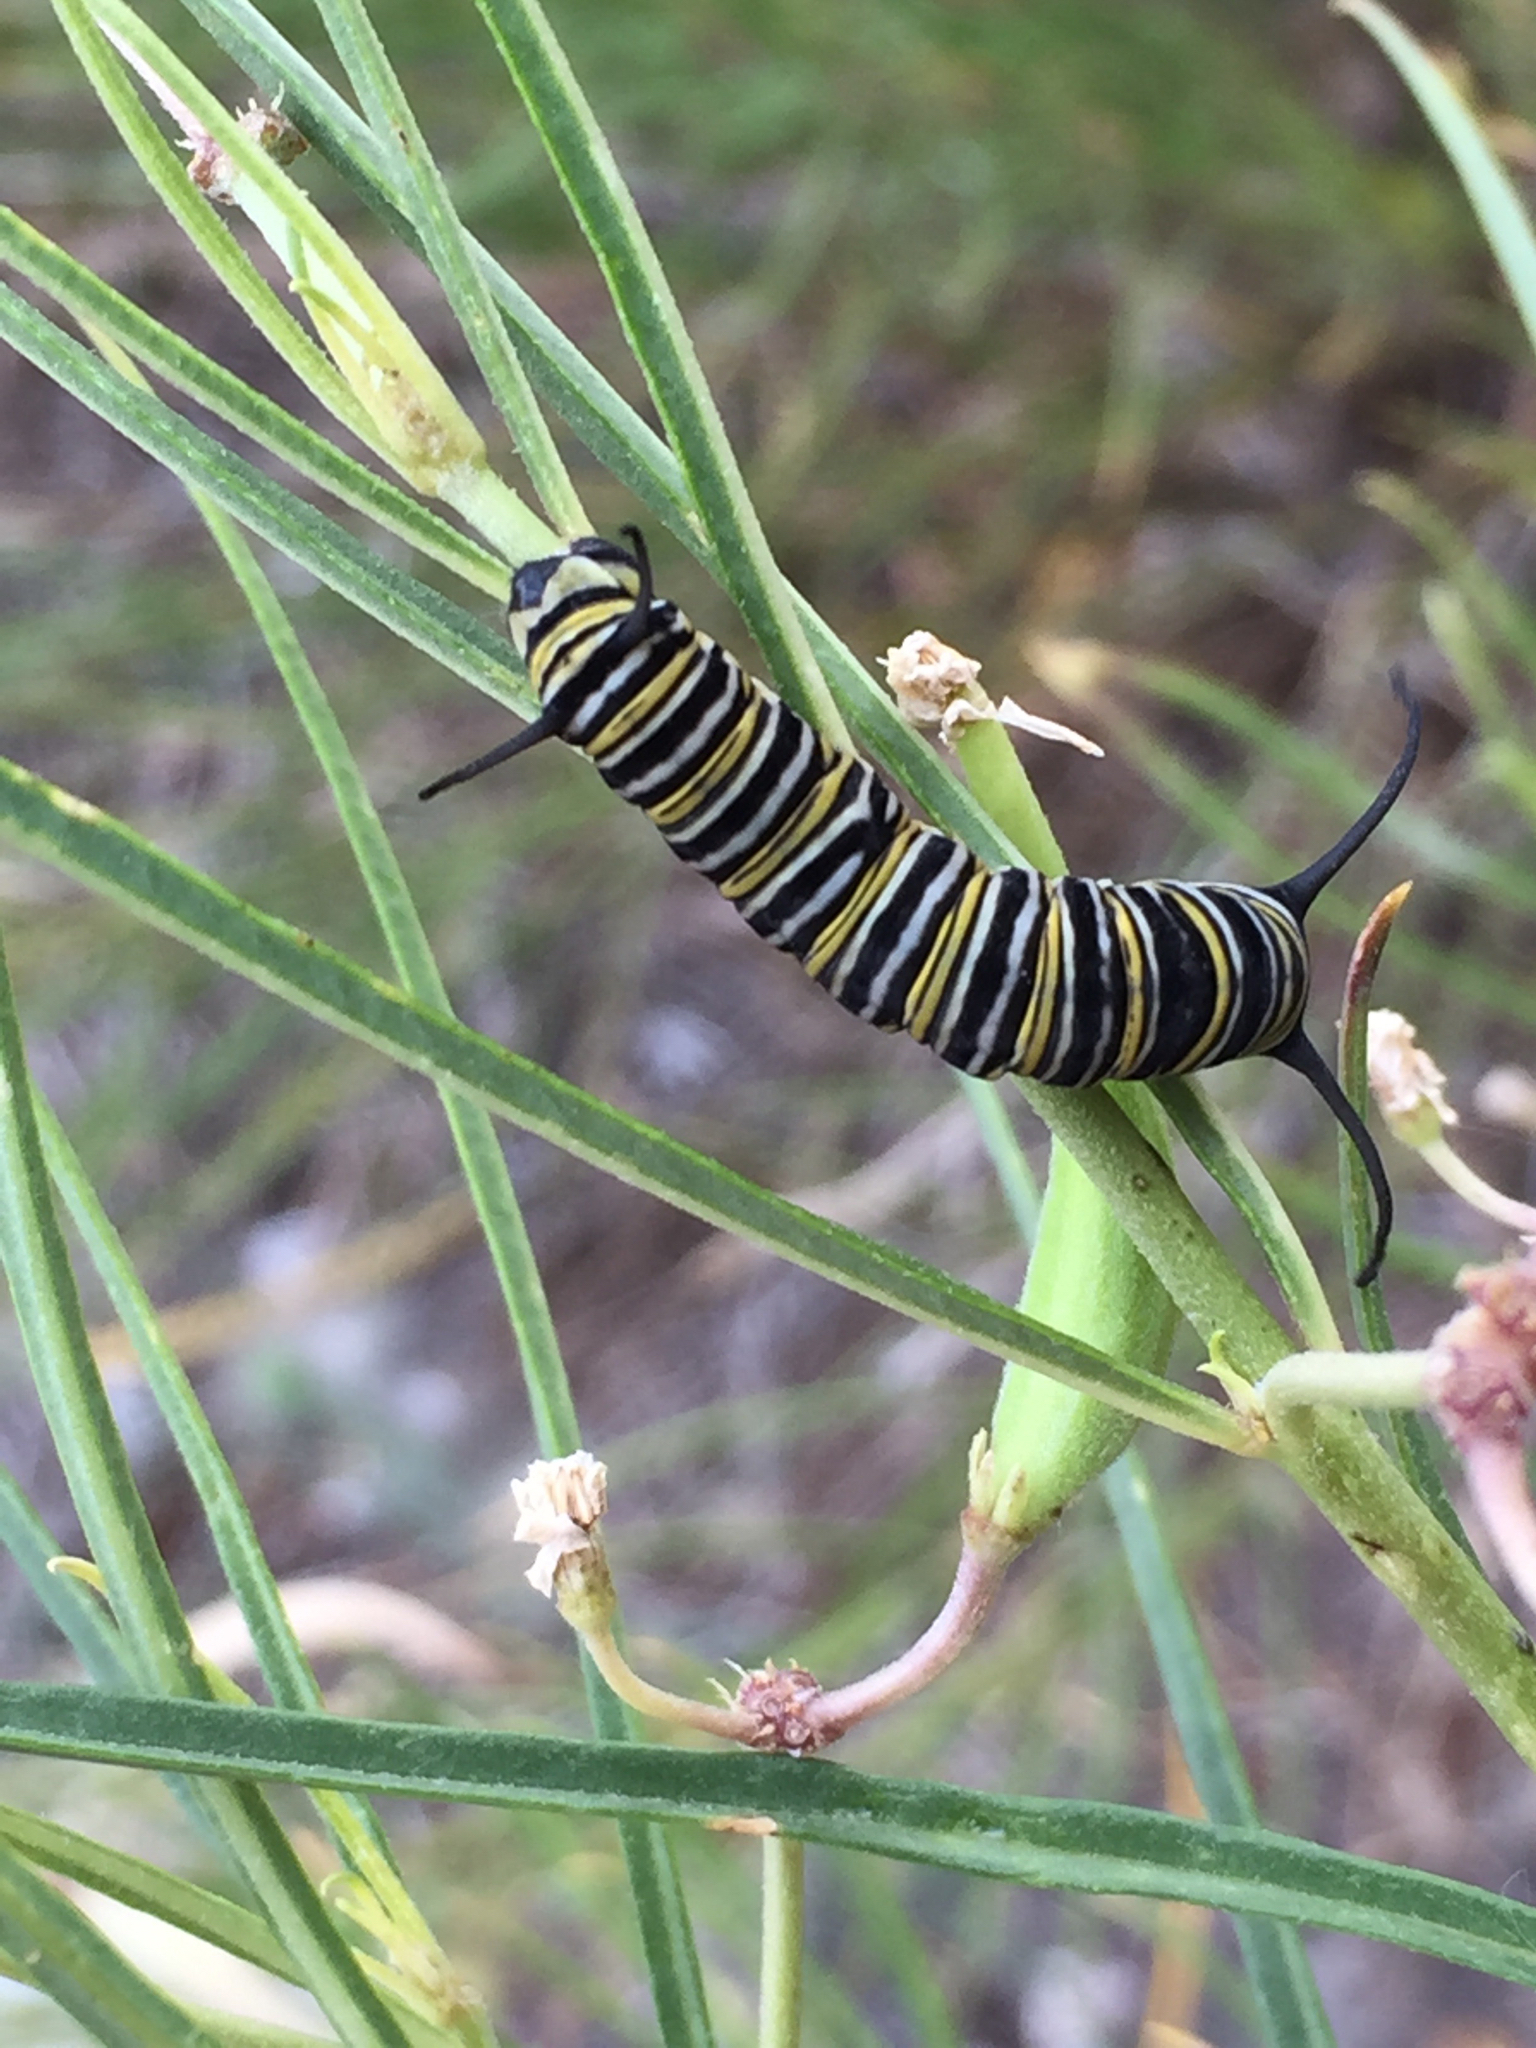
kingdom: Animalia
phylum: Arthropoda
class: Insecta
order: Lepidoptera
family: Nymphalidae
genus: Danaus
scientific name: Danaus plexippus
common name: Monarch
